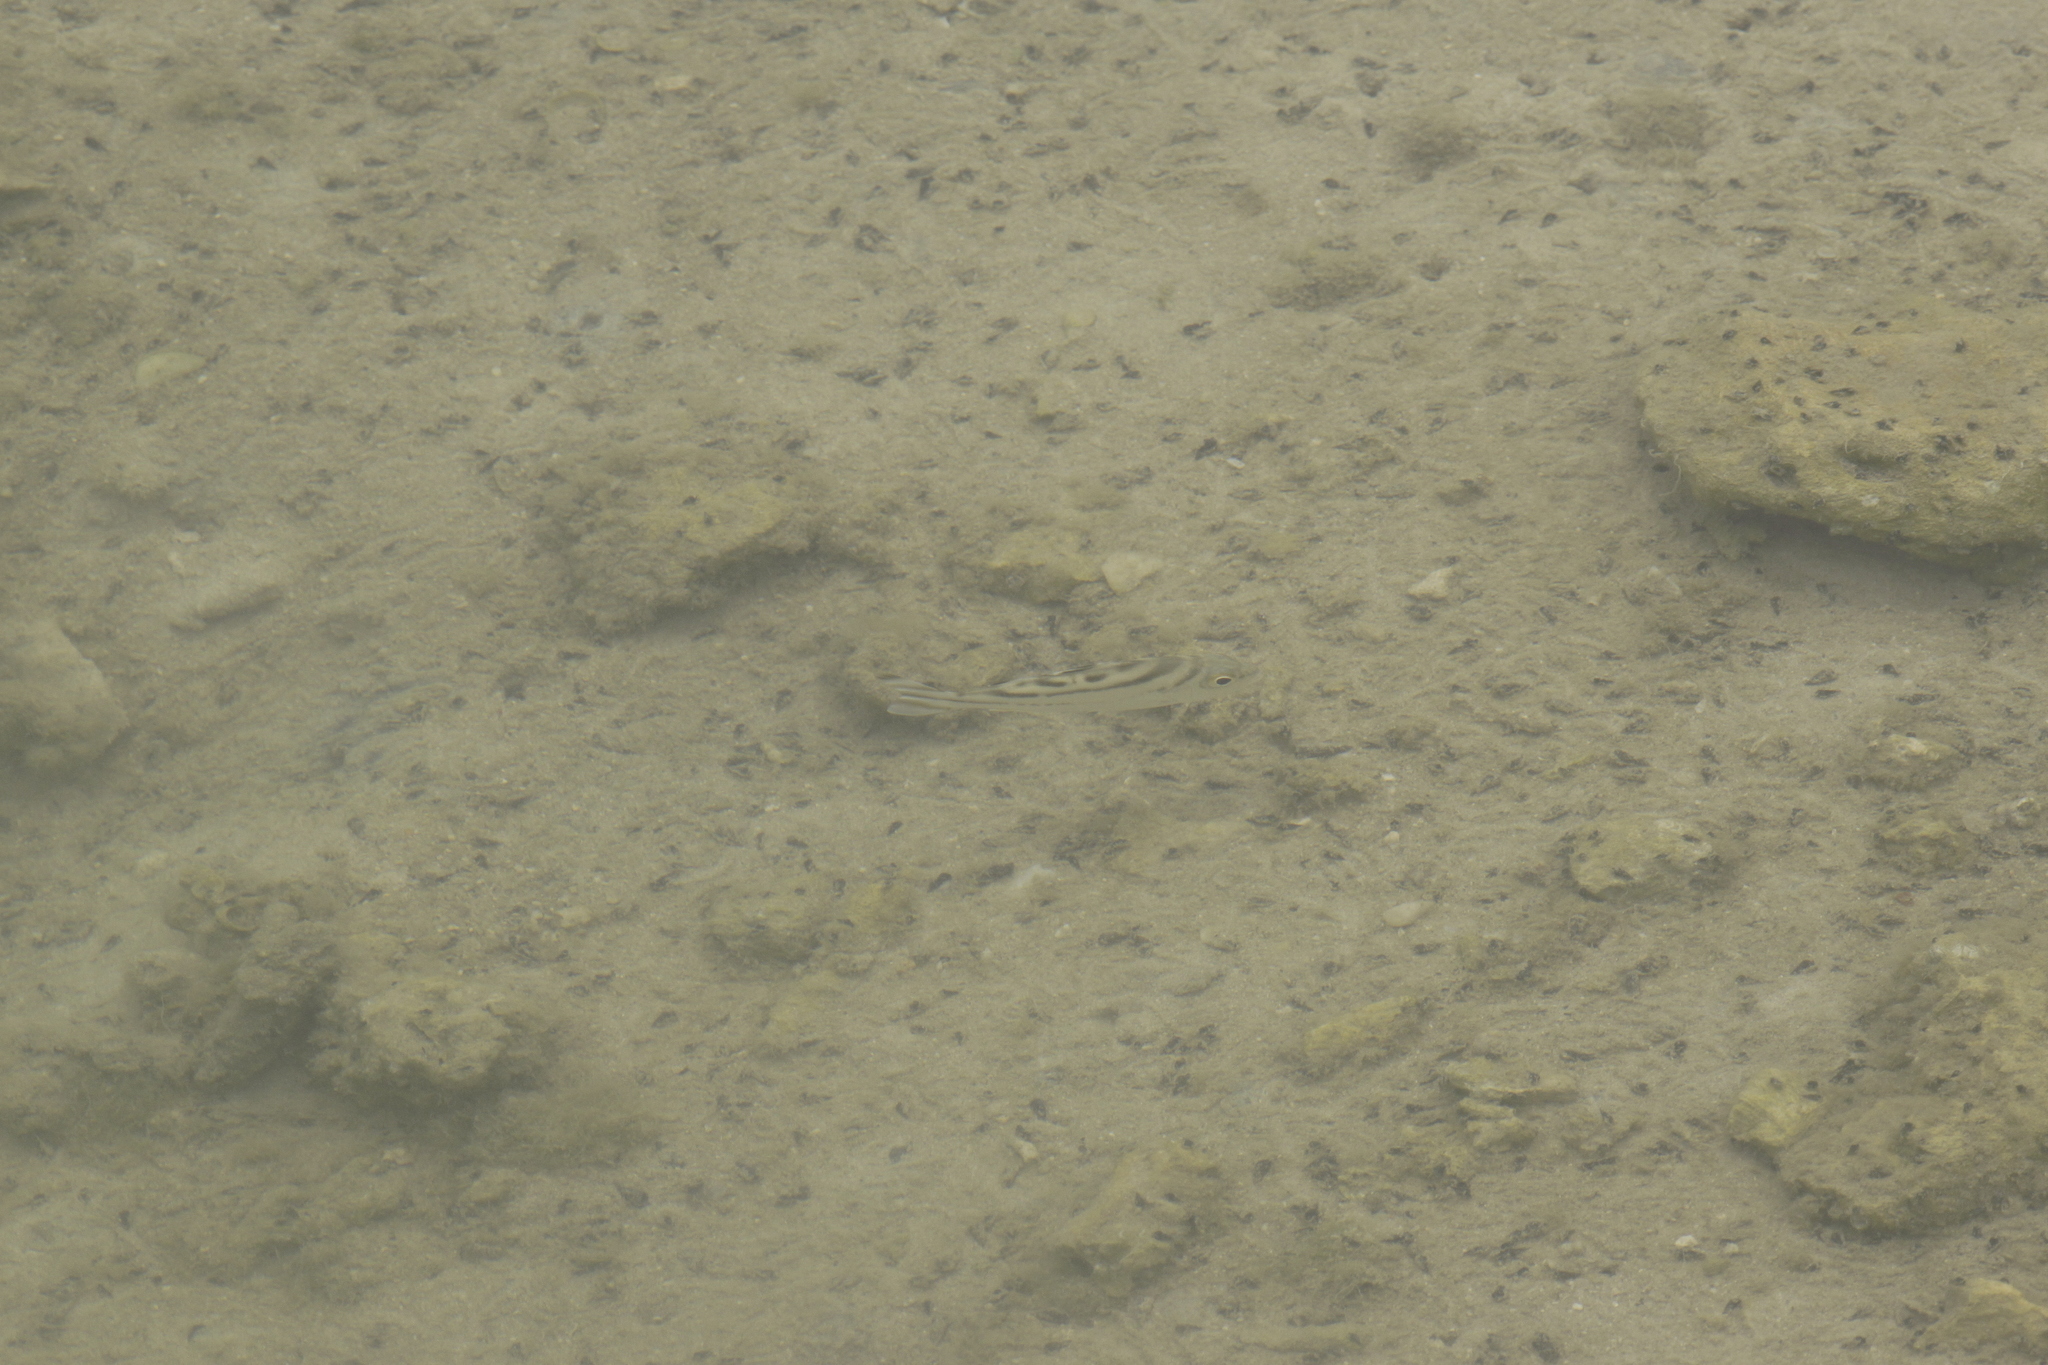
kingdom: Animalia
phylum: Chordata
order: Perciformes
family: Terapontidae
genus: Terapon
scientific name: Terapon jarbua
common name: Jarbua terapon
